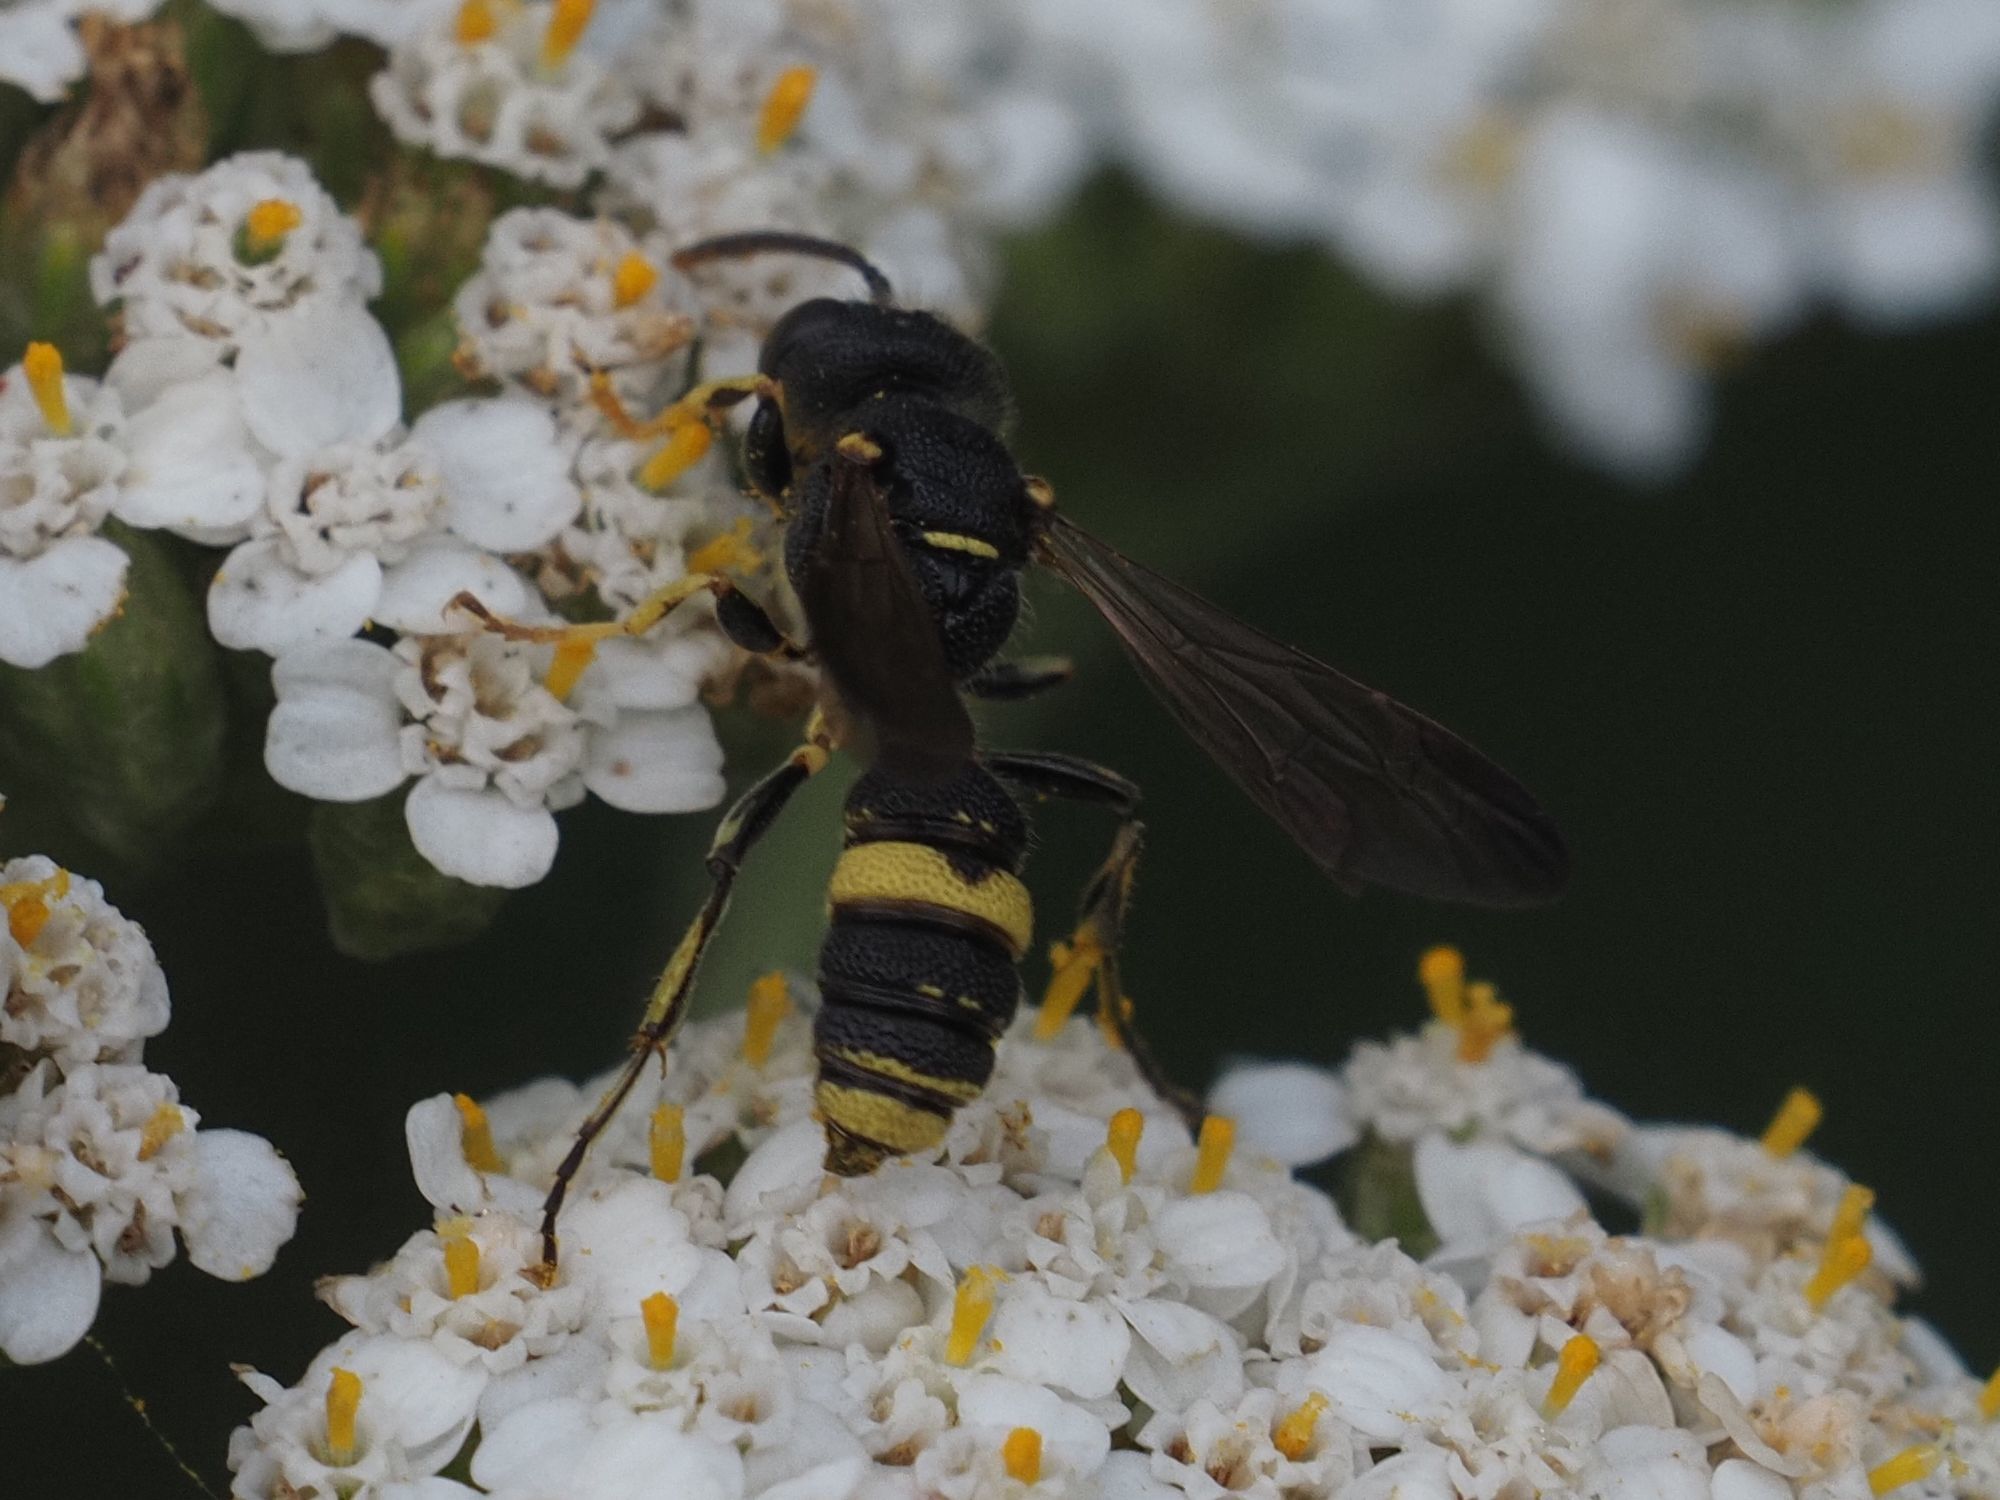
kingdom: Animalia
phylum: Arthropoda
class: Insecta
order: Hymenoptera
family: Crabronidae
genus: Cerceris
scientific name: Cerceris hortivaga
